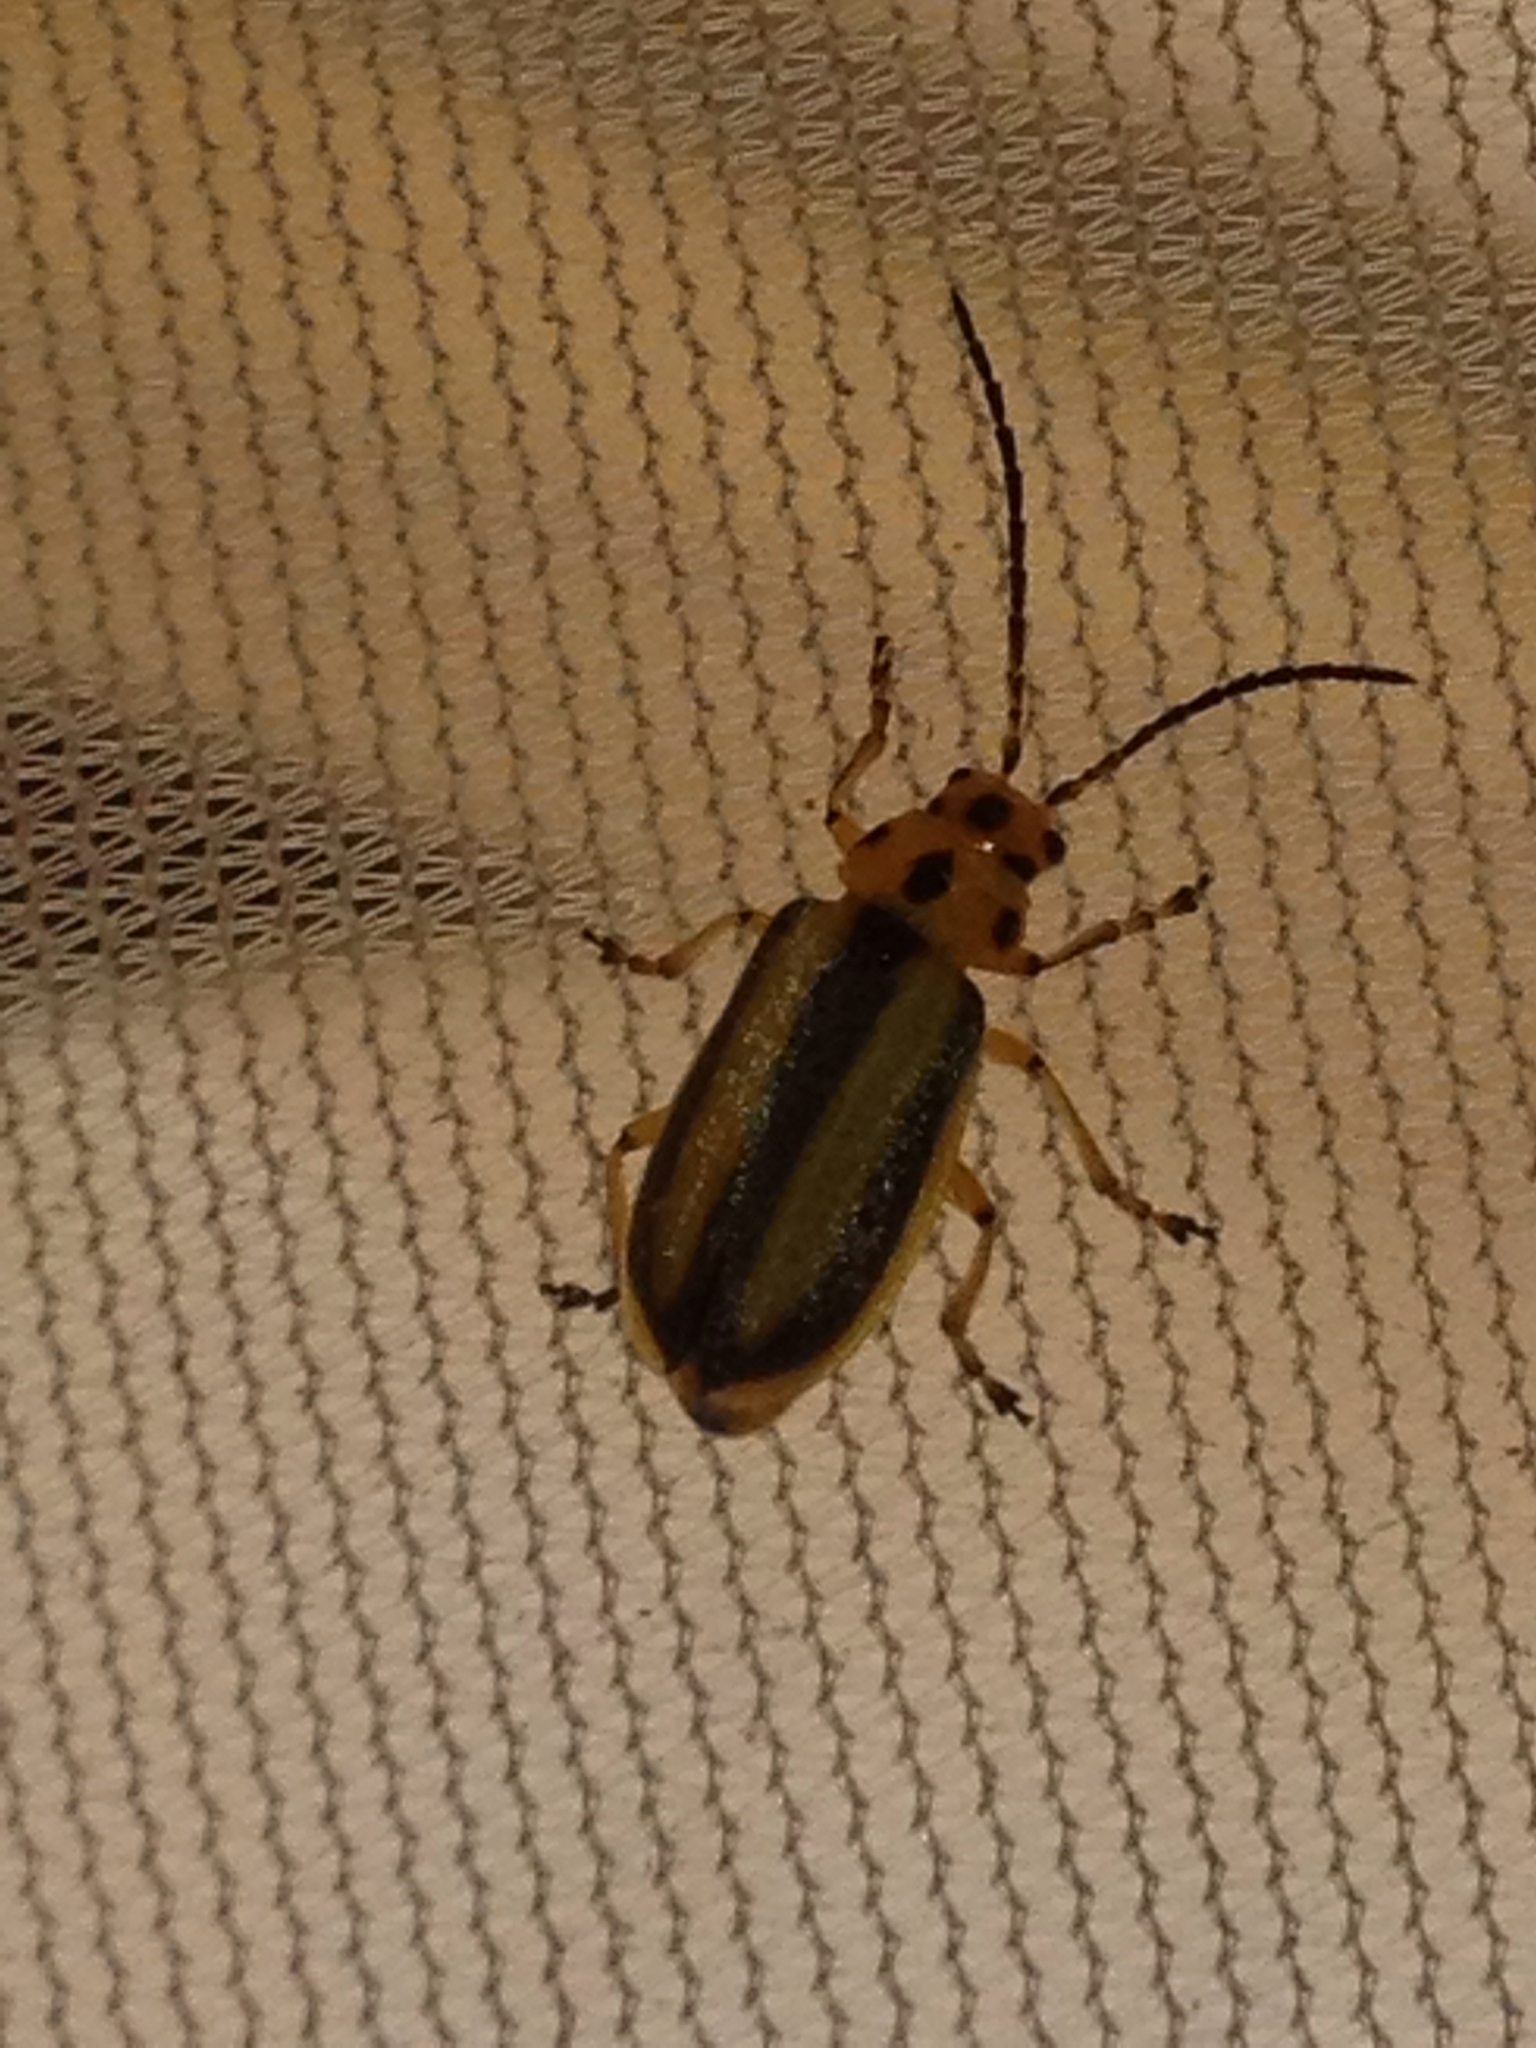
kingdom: Animalia
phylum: Arthropoda
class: Insecta
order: Coleoptera
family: Chrysomelidae
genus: Trirhabda
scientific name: Trirhabda canadensis
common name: Goldenrod leaf beetle
